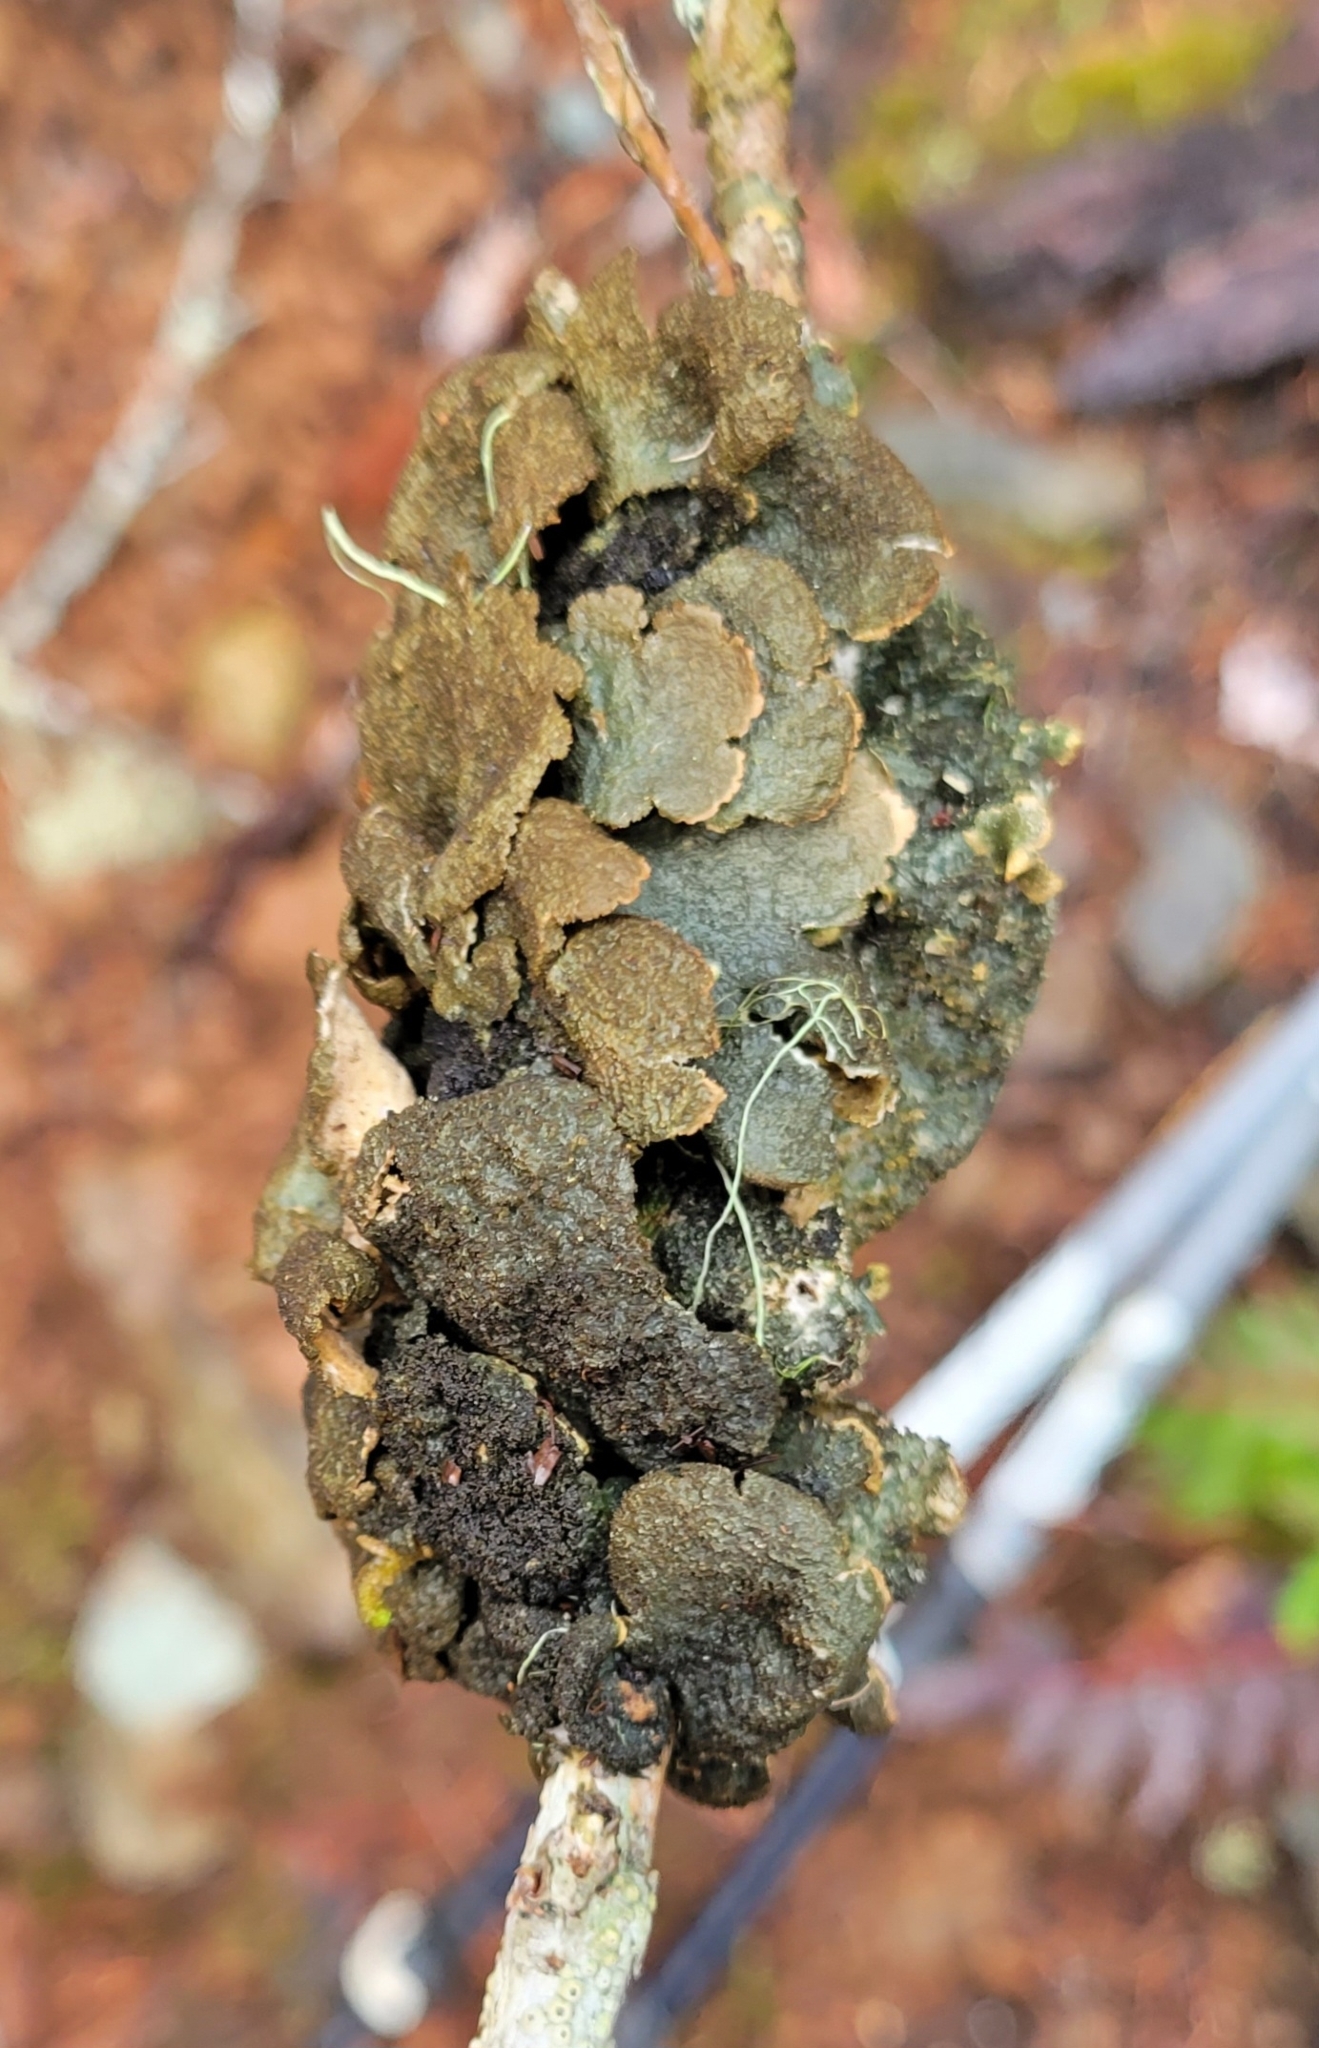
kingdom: Fungi
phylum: Ascomycota
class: Lecanoromycetes
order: Peltigerales
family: Lobariaceae
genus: Sticta
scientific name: Sticta
